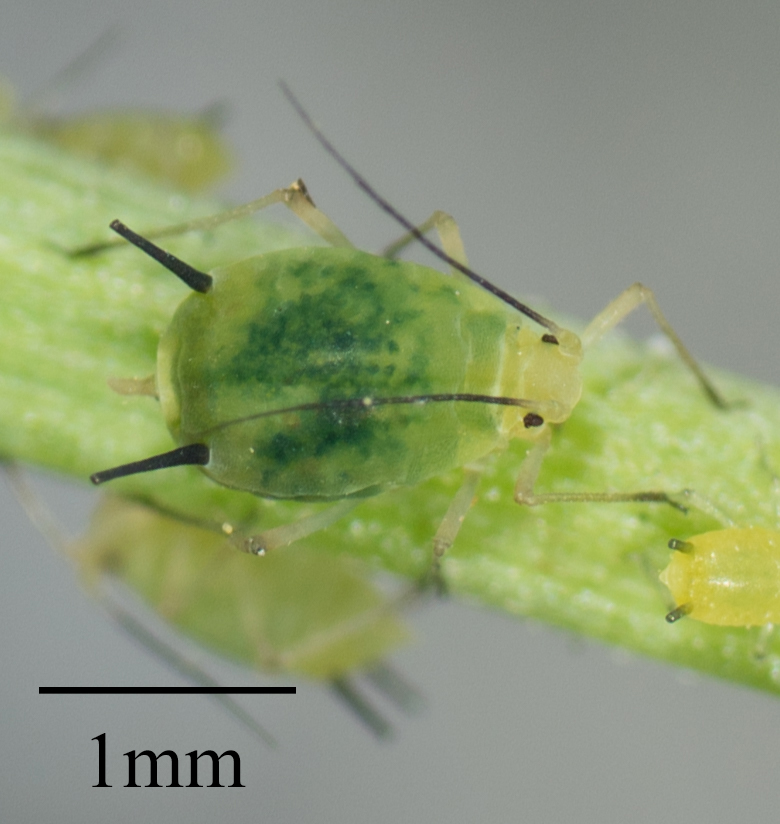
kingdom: Animalia
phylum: Arthropoda
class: Insecta
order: Hemiptera
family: Aphididae
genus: Aphis
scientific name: Aphis coreopsidis
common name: Aphid
